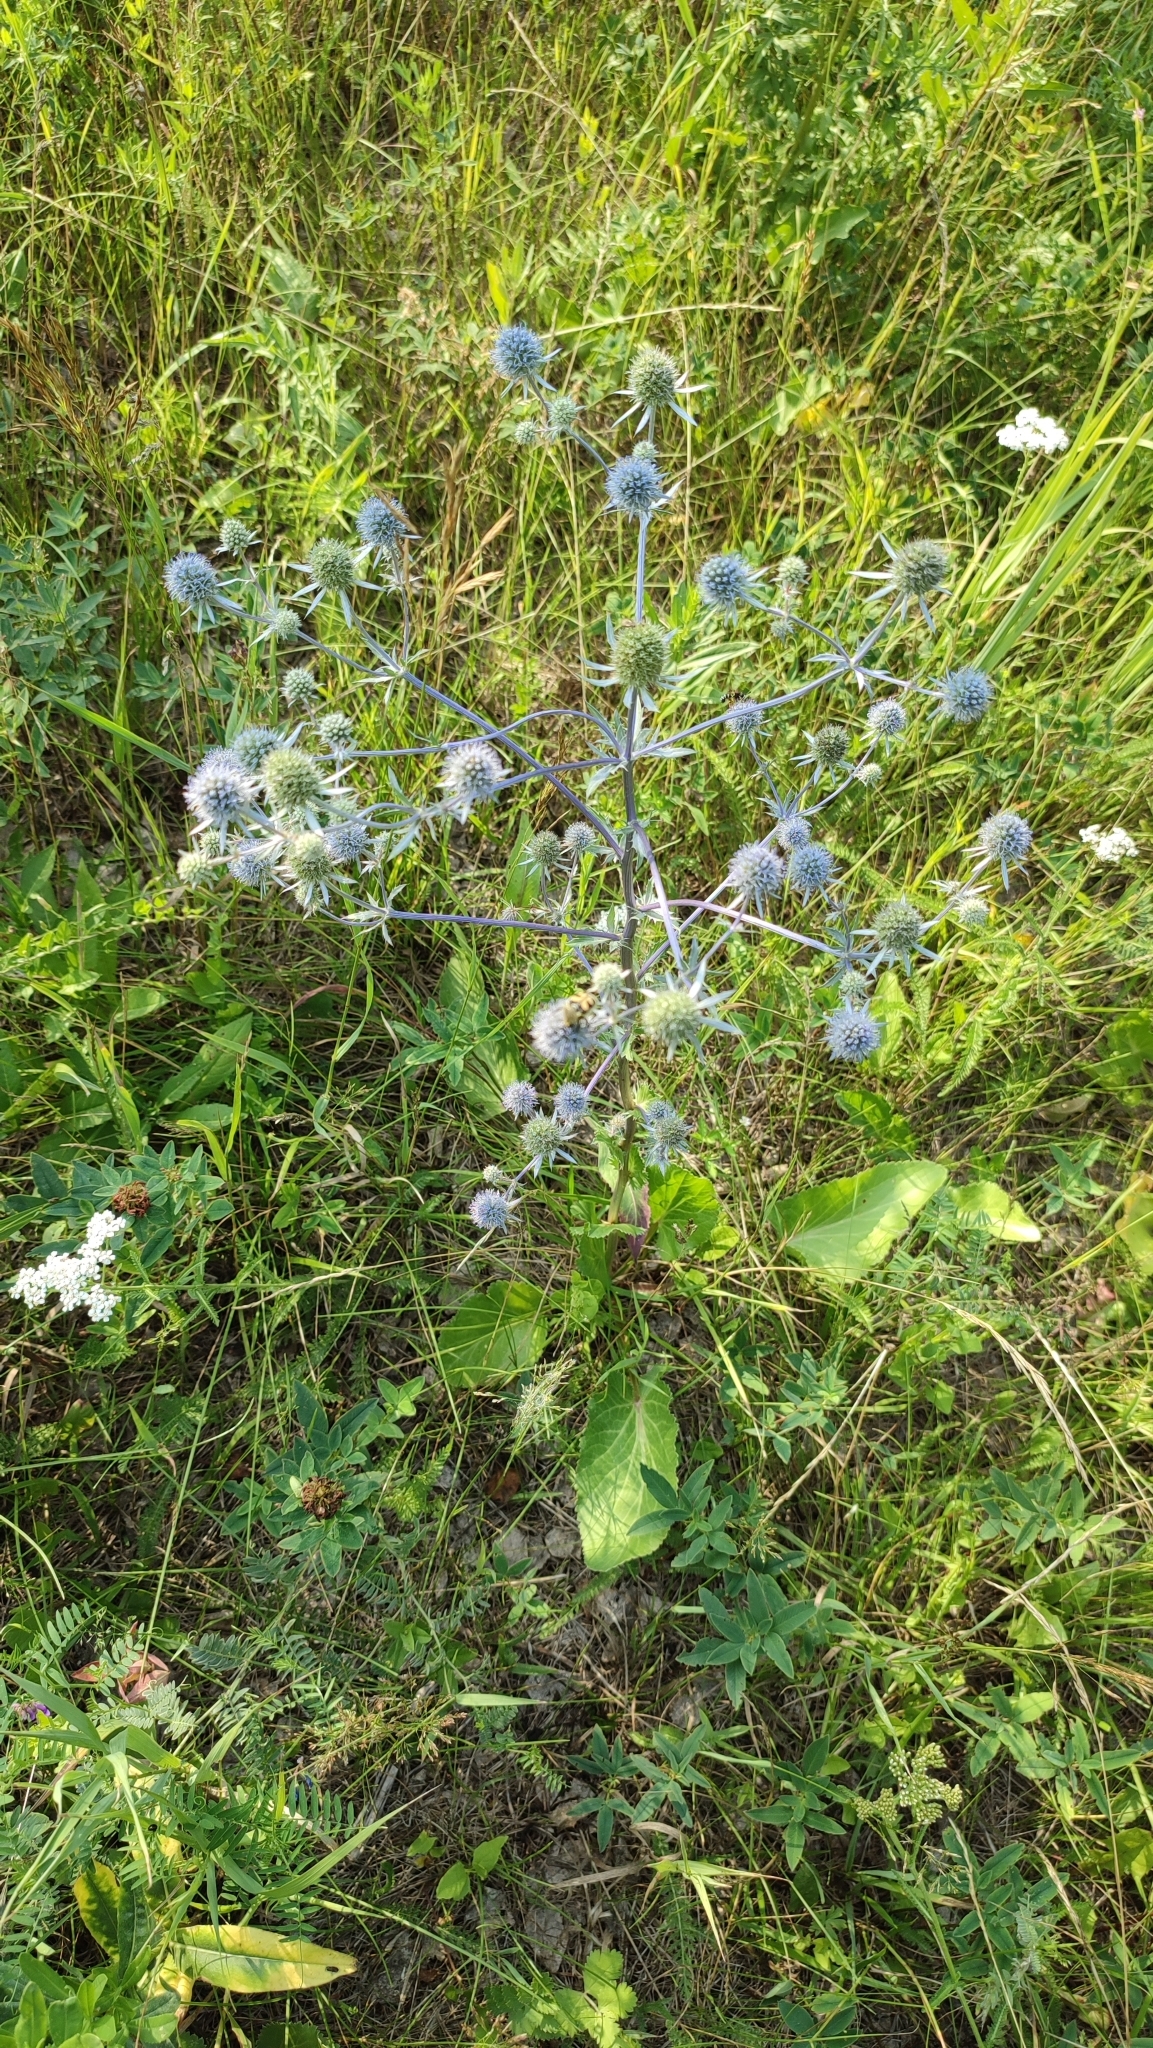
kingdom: Plantae
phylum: Tracheophyta
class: Magnoliopsida
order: Apiales
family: Apiaceae
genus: Eryngium
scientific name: Eryngium planum
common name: Blue eryngo
